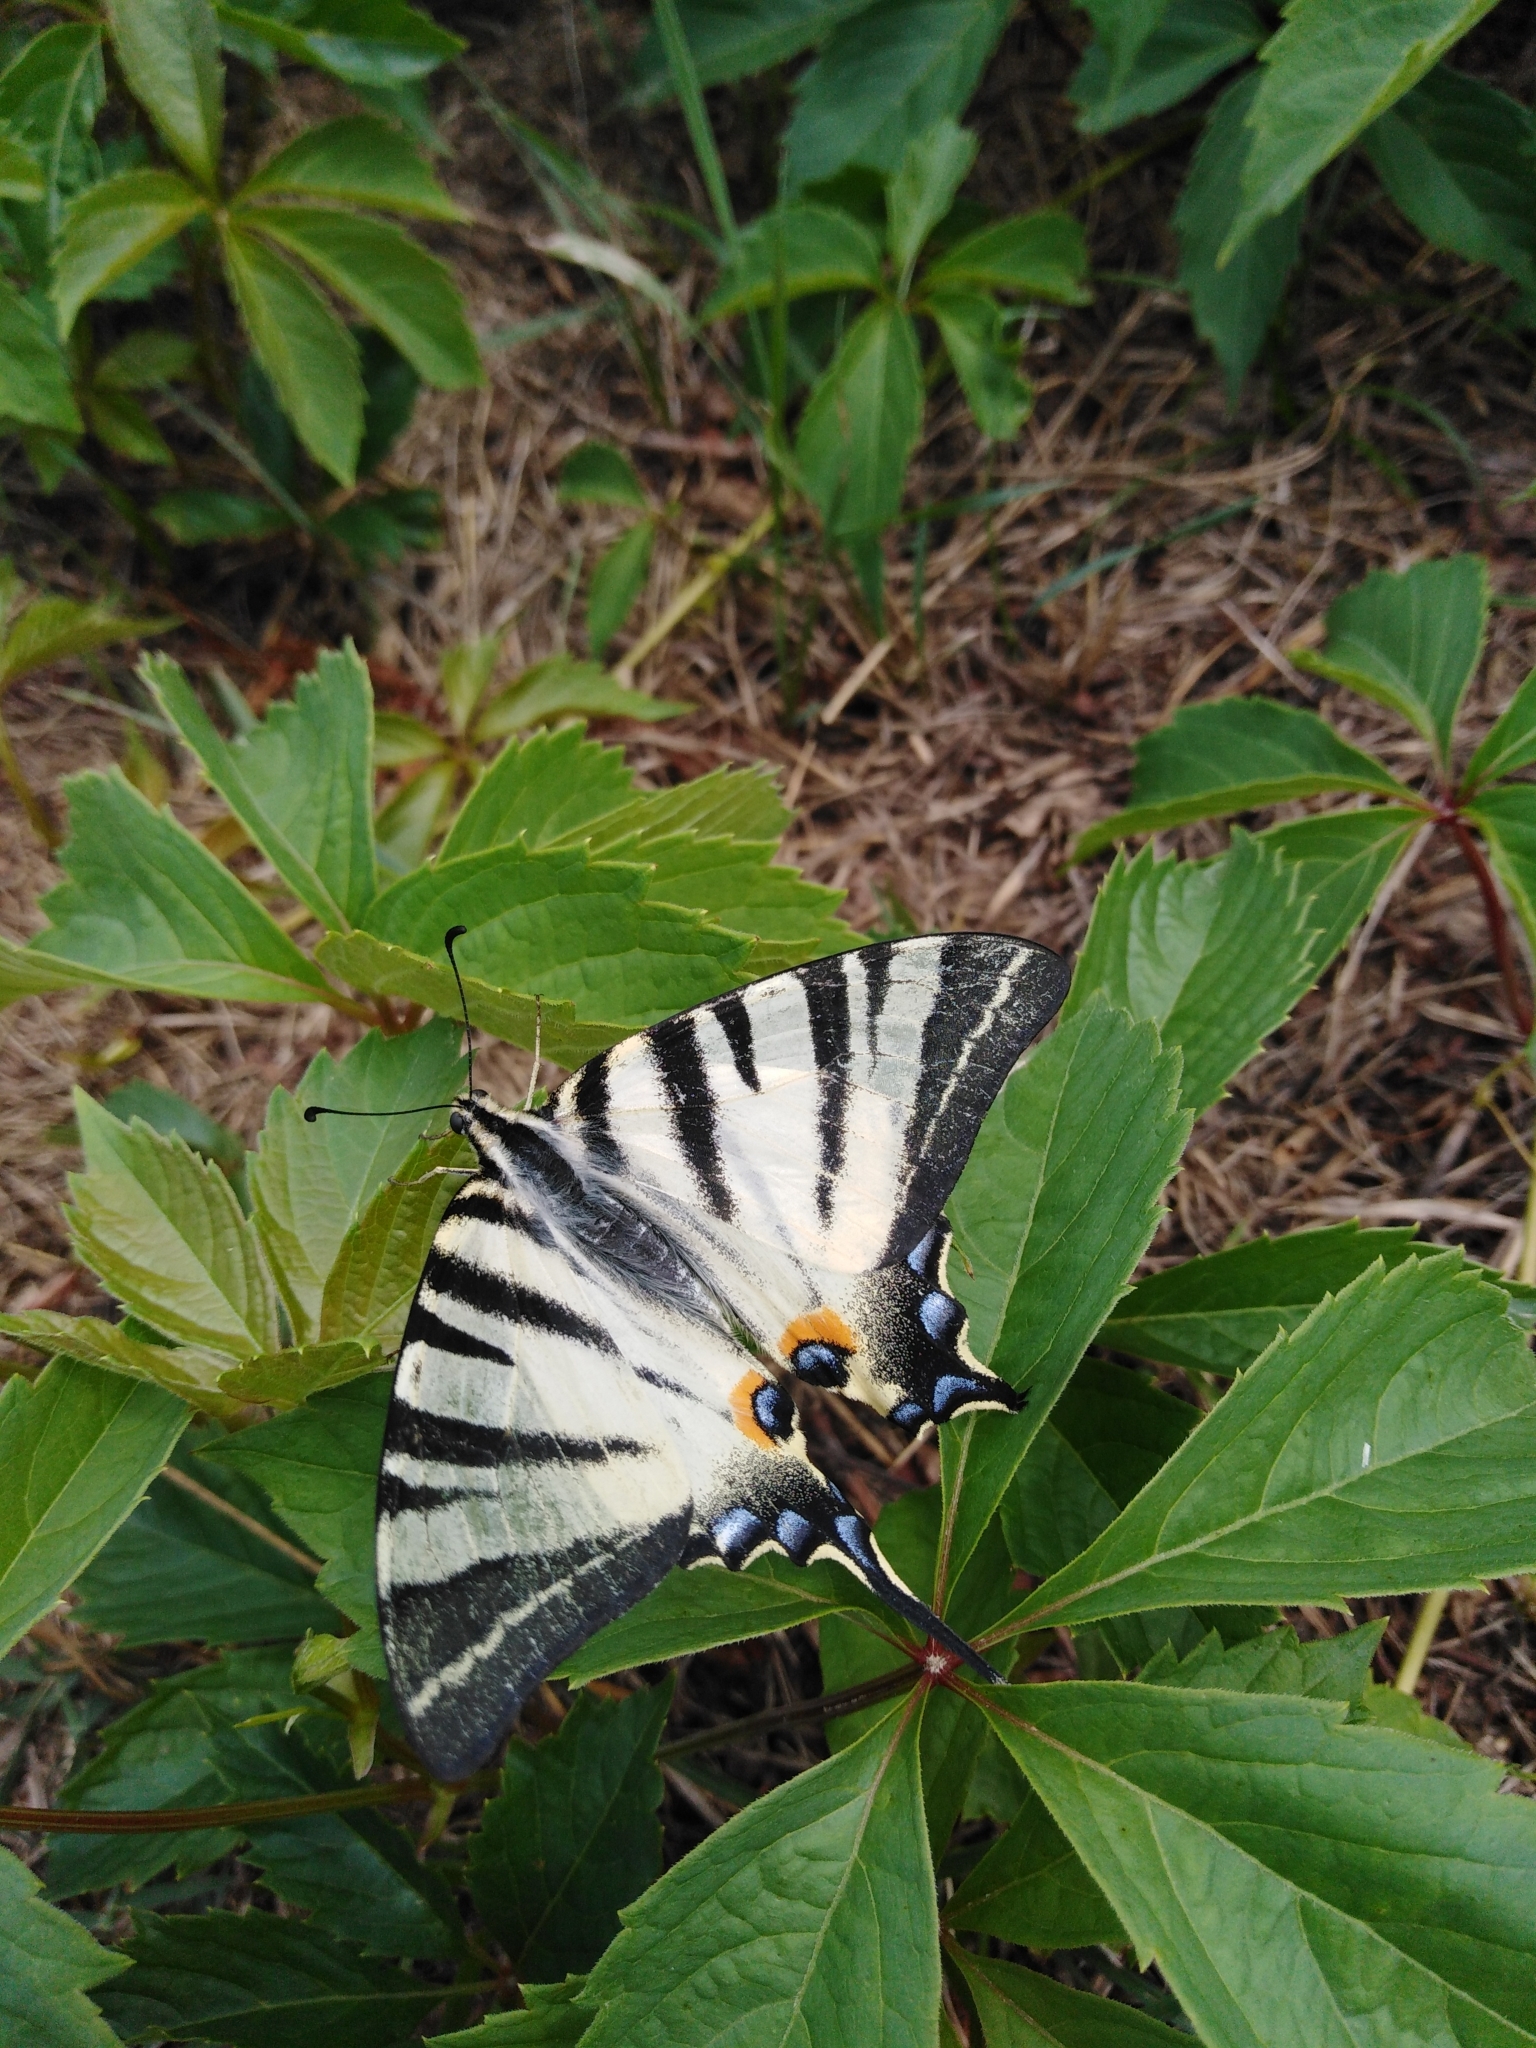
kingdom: Animalia
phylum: Arthropoda
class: Insecta
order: Lepidoptera
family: Papilionidae
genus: Iphiclides
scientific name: Iphiclides podalirius
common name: Scarce swallowtail
